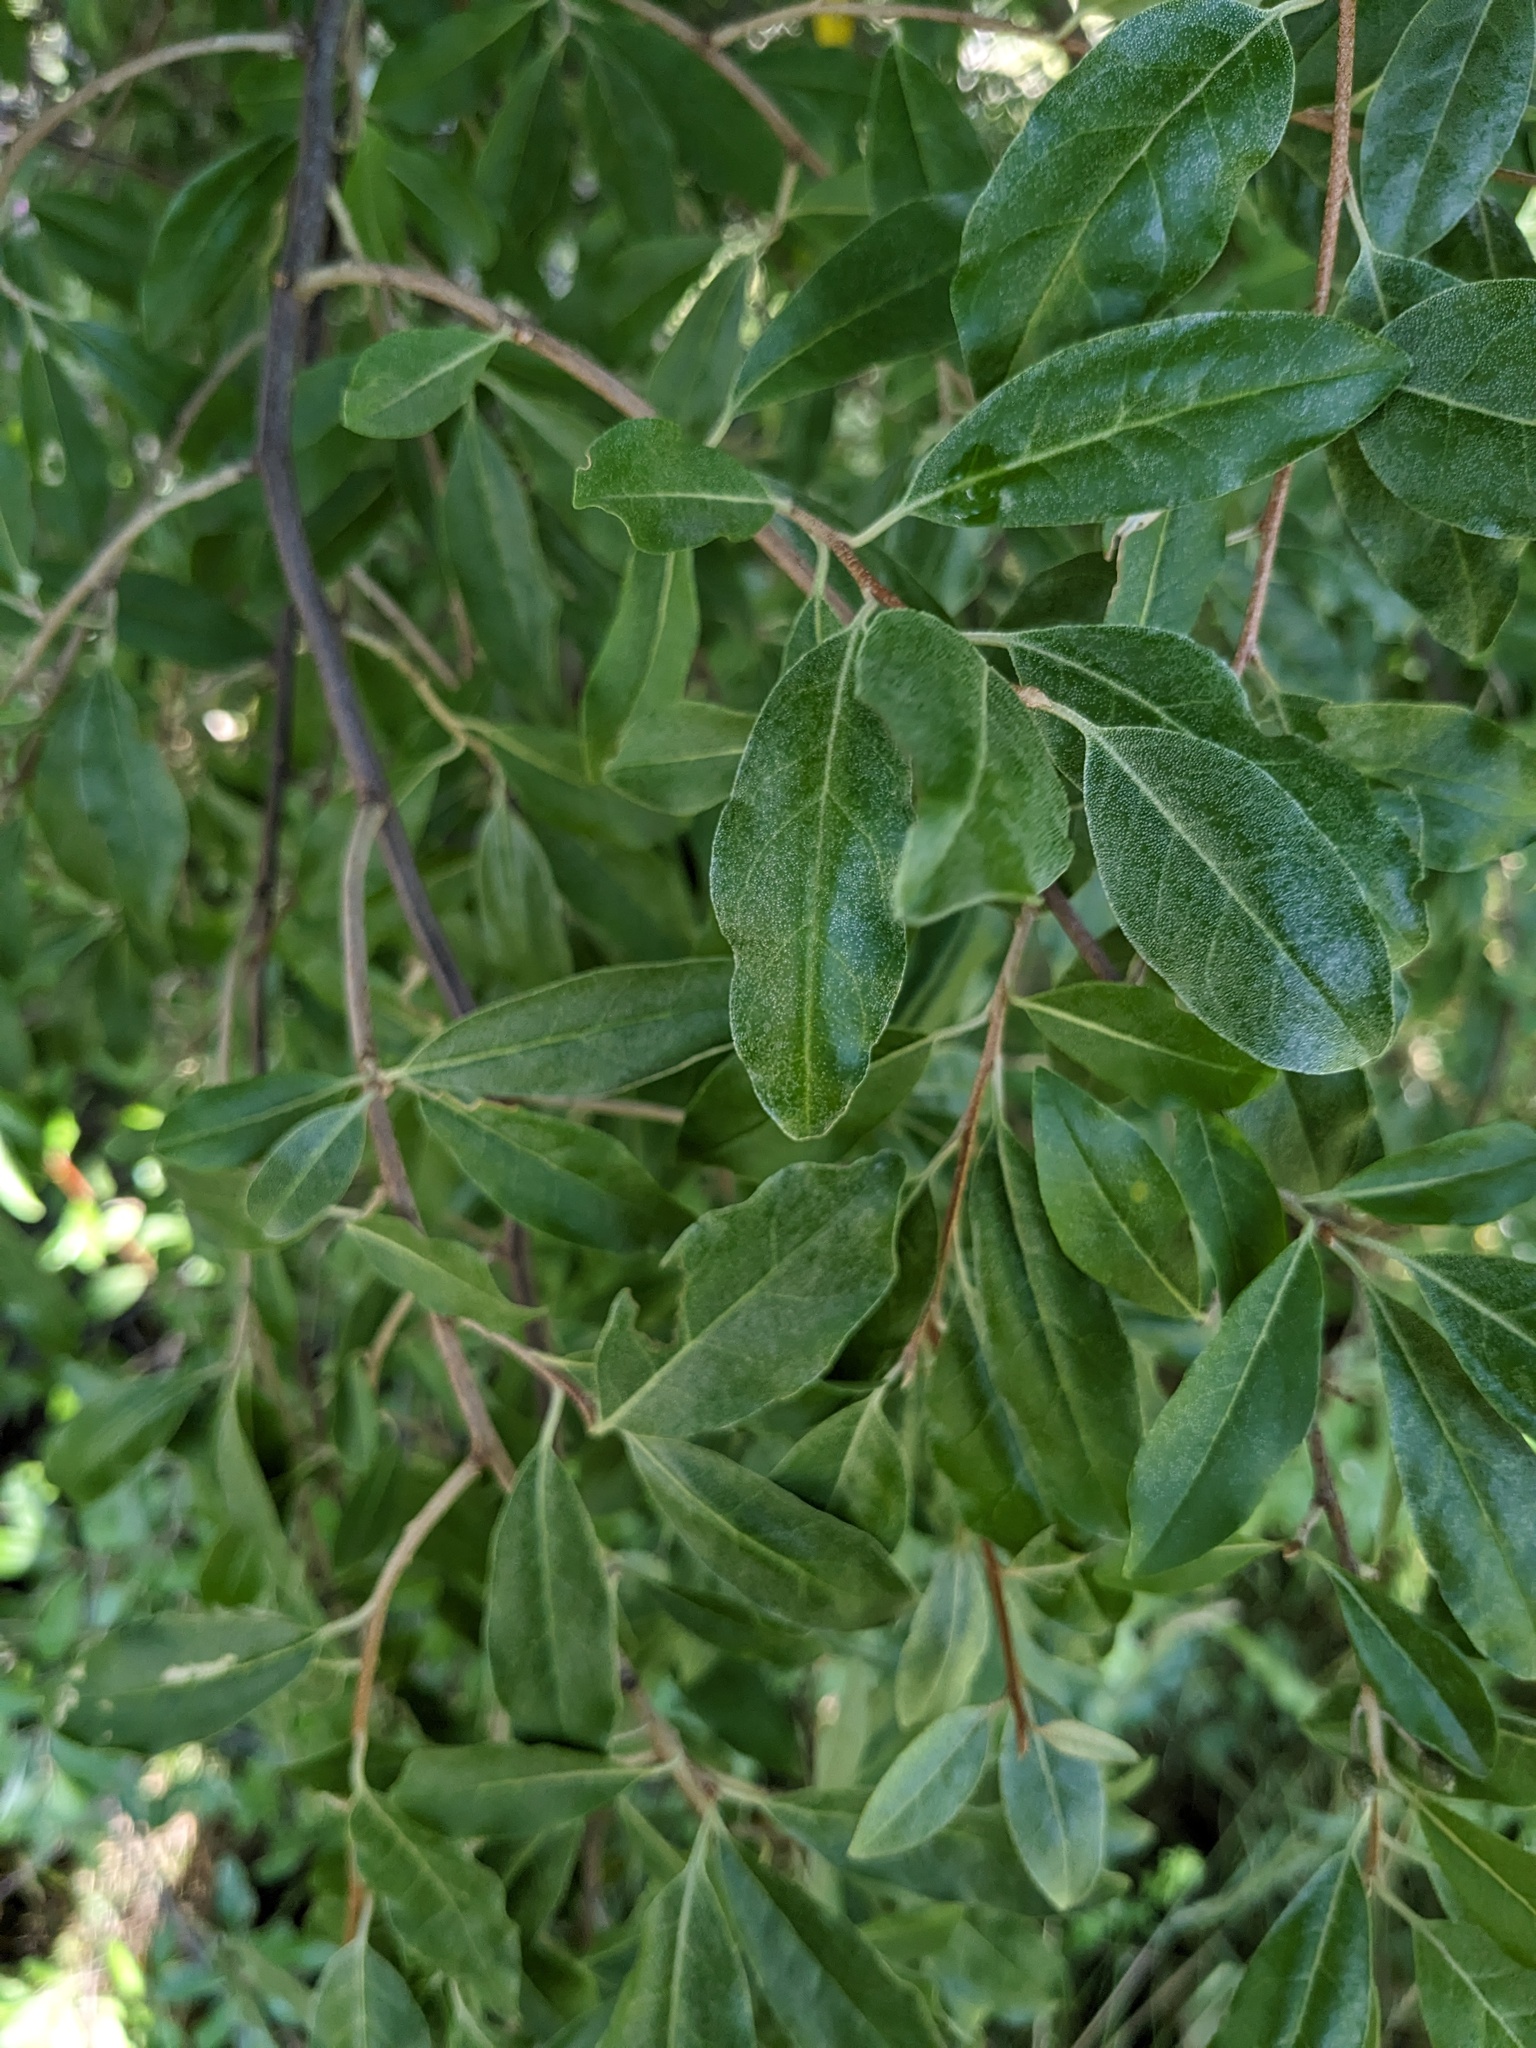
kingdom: Plantae
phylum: Tracheophyta
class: Magnoliopsida
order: Rosales
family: Elaeagnaceae
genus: Elaeagnus
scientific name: Elaeagnus umbellata
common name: Autumn olive
